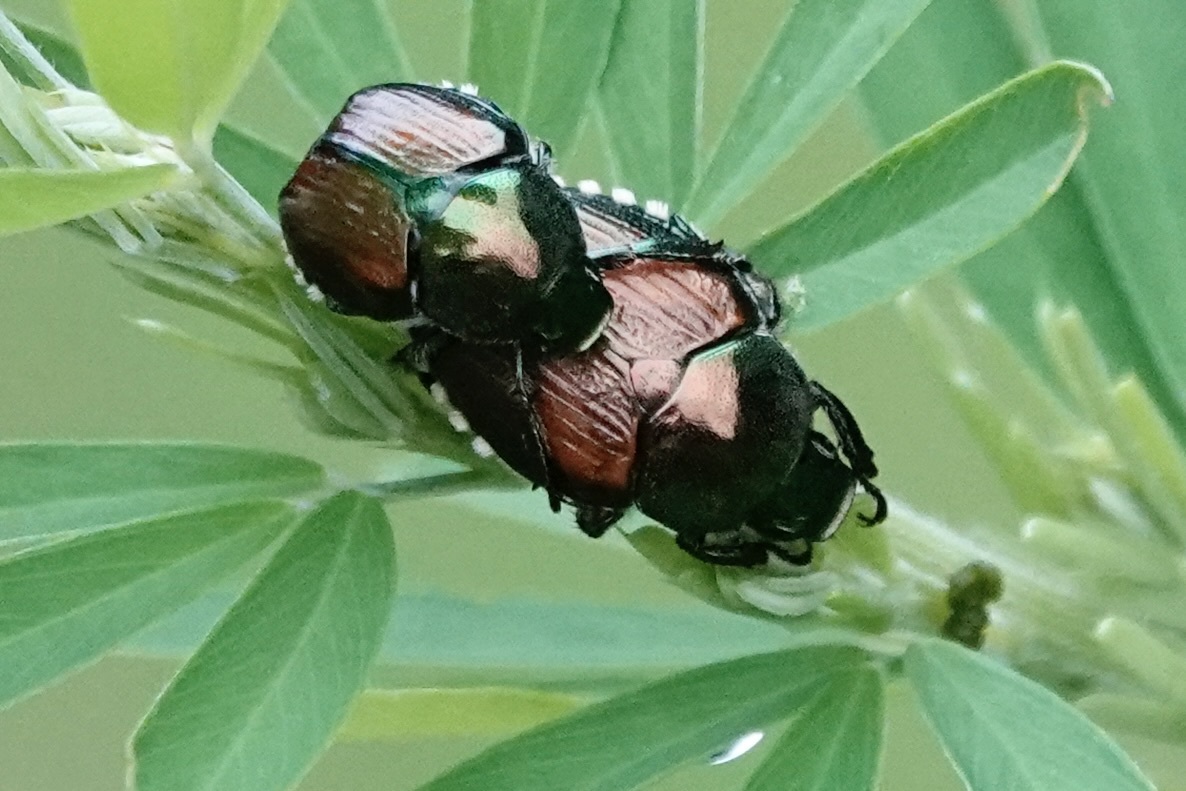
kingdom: Animalia
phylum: Arthropoda
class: Insecta
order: Coleoptera
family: Scarabaeidae
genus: Popillia
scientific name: Popillia japonica
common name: Japanese beetle
